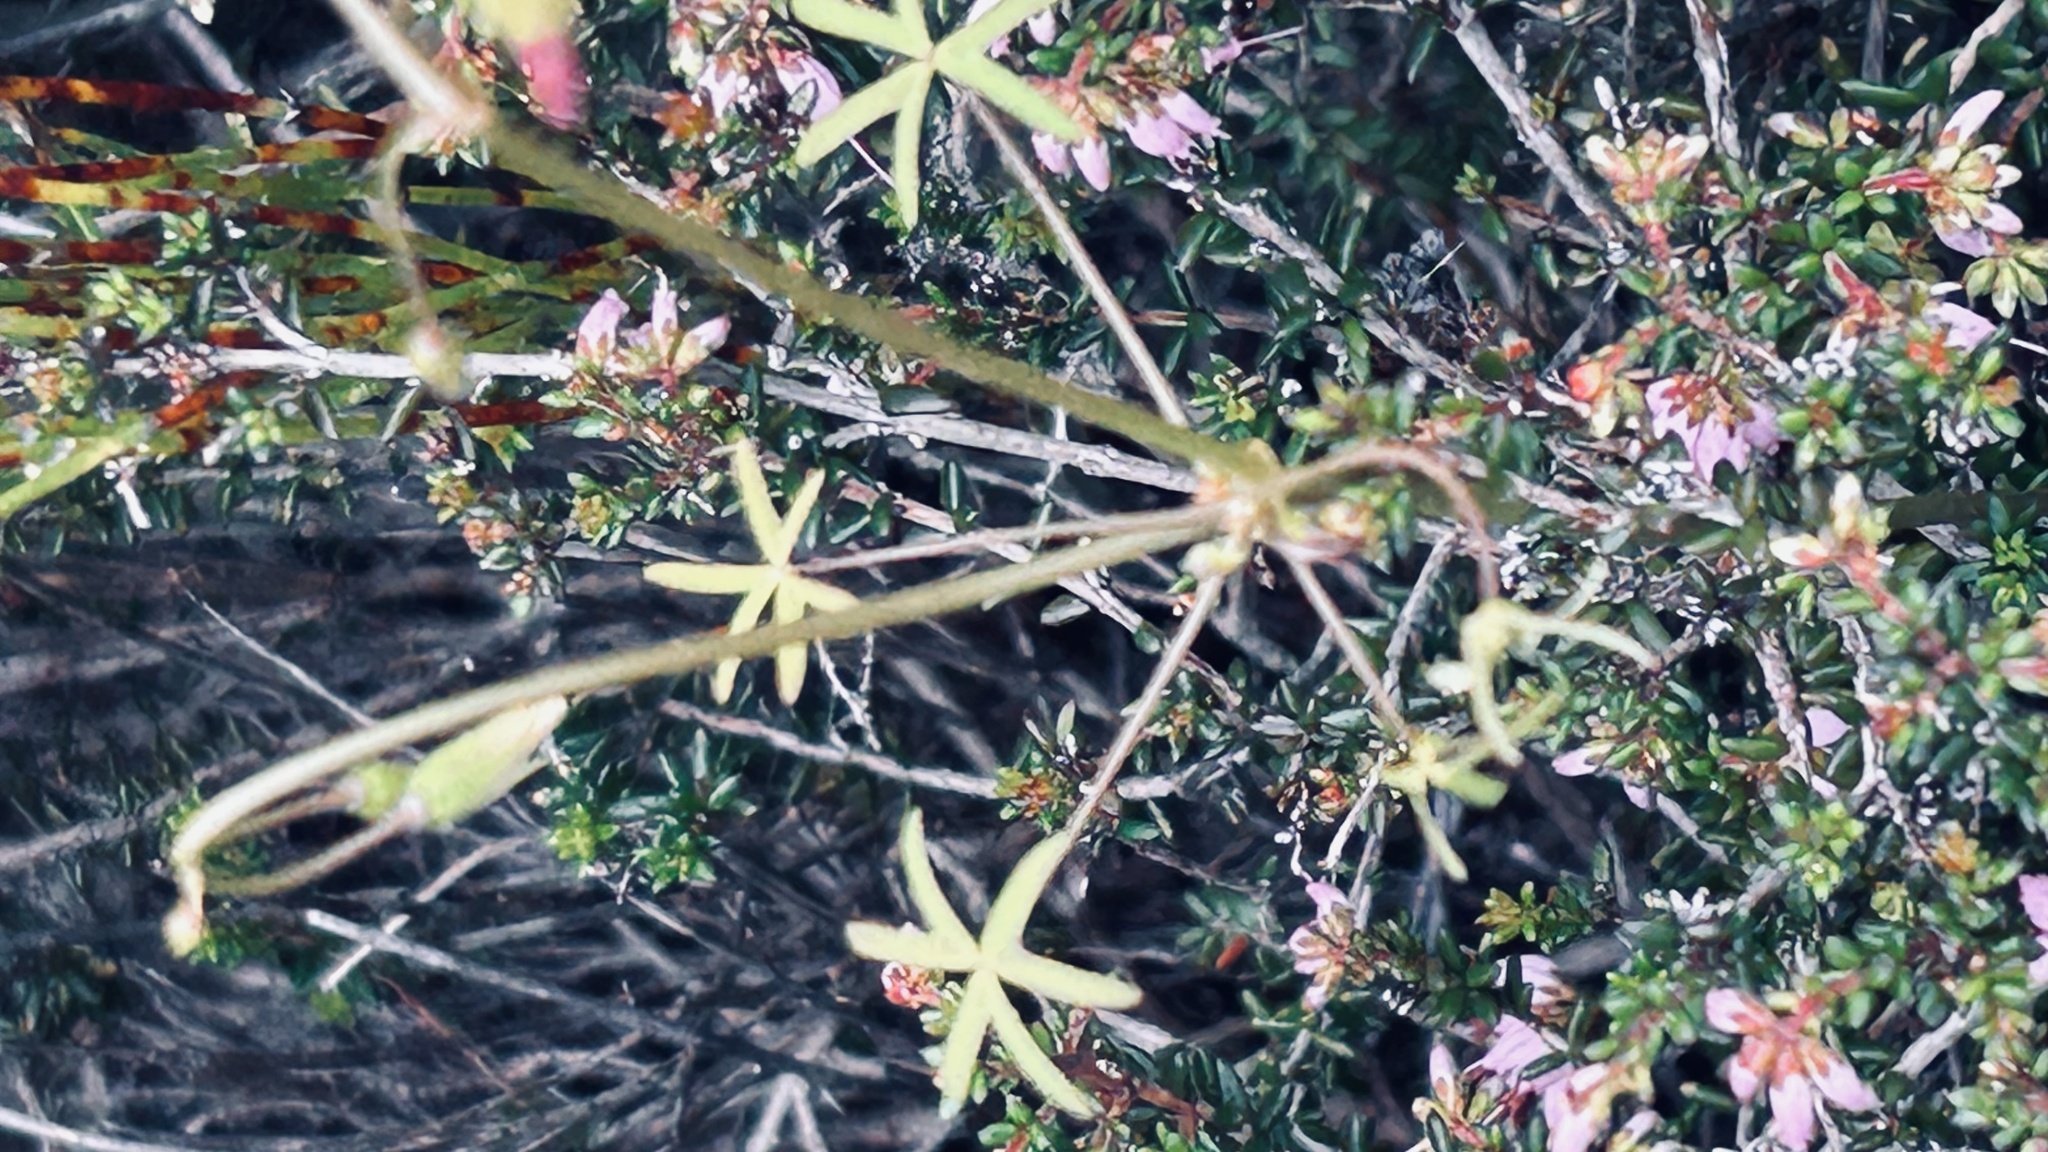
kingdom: Plantae
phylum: Tracheophyta
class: Magnoliopsida
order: Oxalidales
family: Oxalidaceae
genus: Oxalis
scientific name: Oxalis stellata
